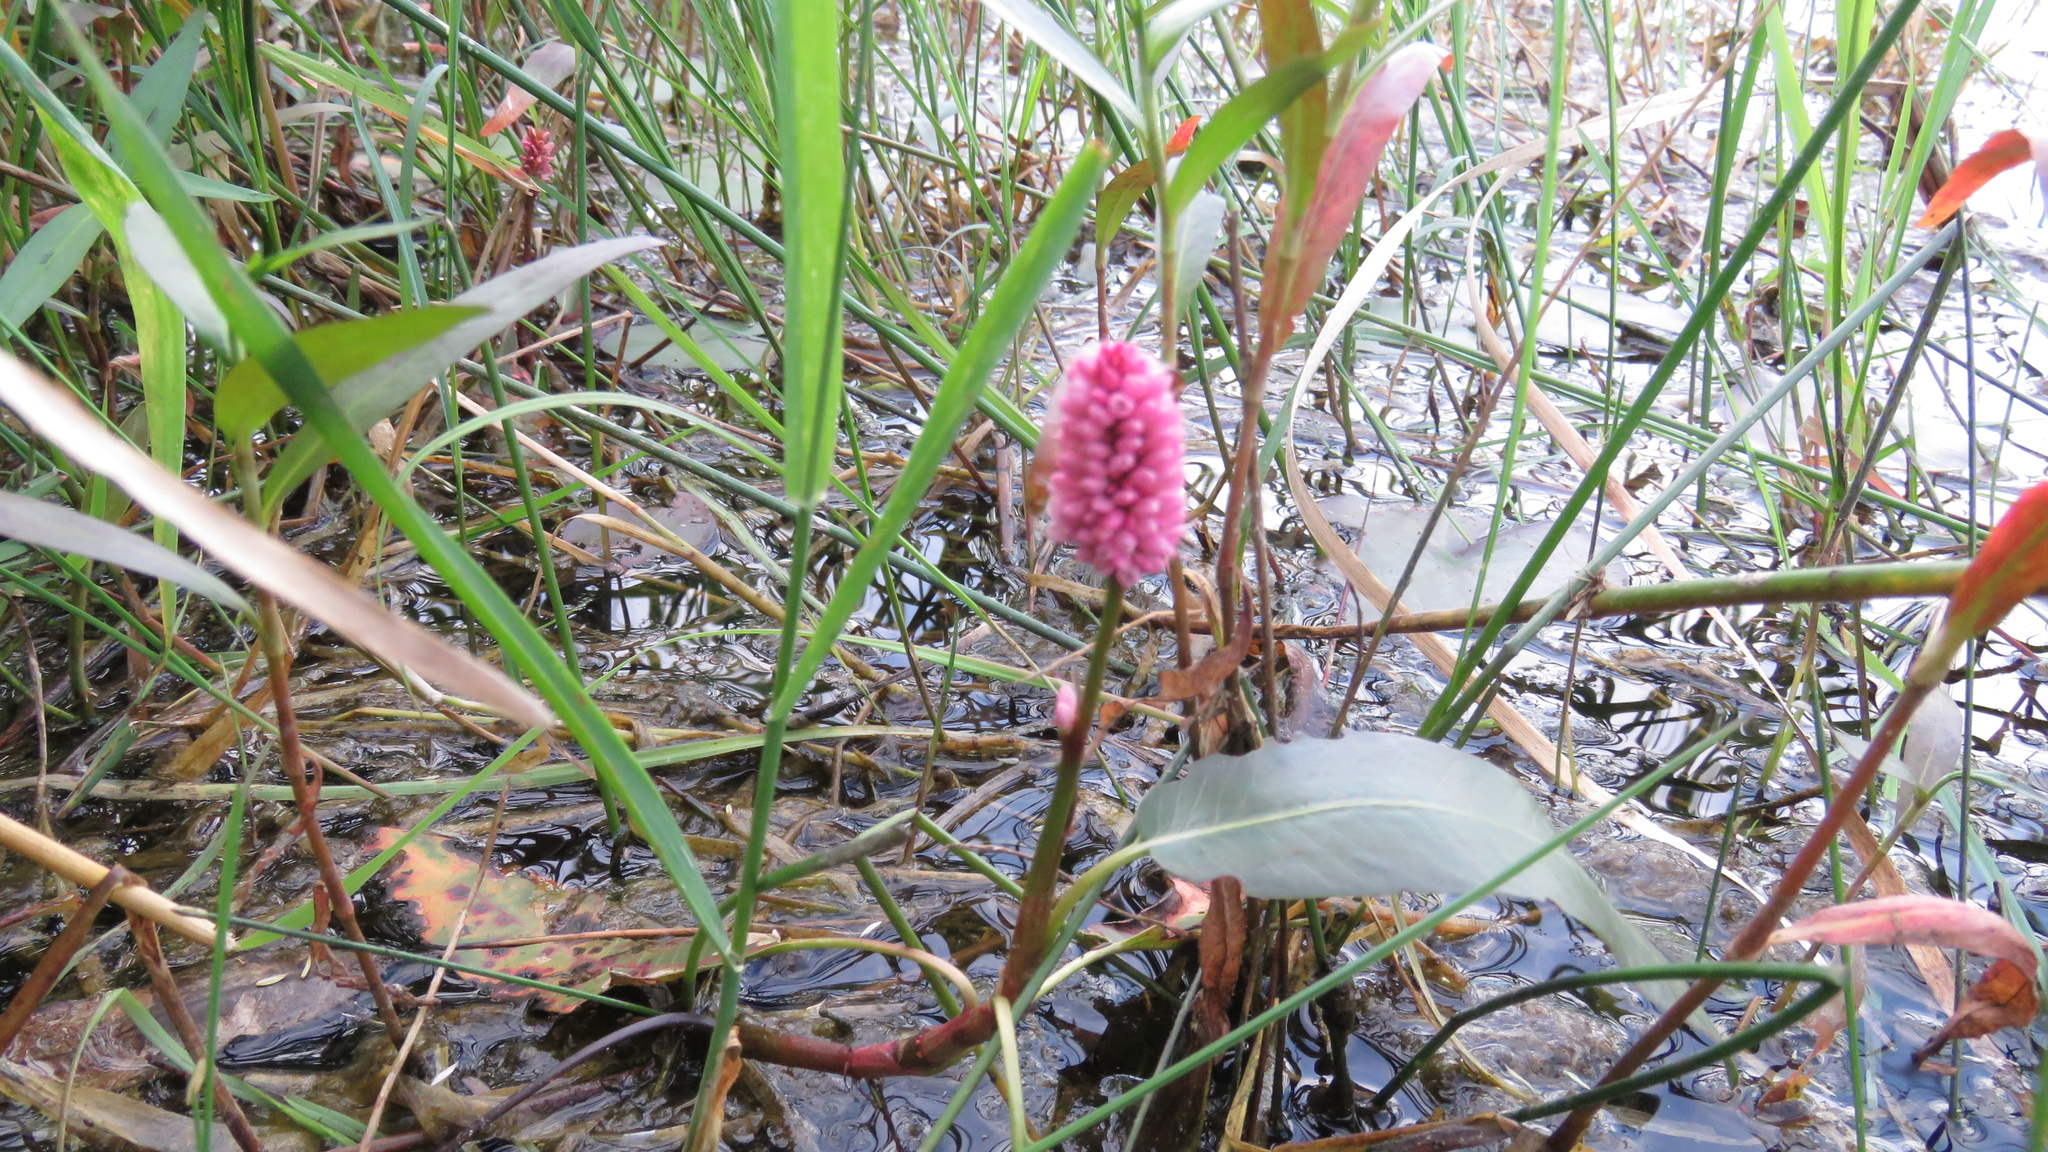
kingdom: Plantae
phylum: Tracheophyta
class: Magnoliopsida
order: Caryophyllales
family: Polygonaceae
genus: Persicaria
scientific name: Persicaria amphibia
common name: Amphibious bistort
